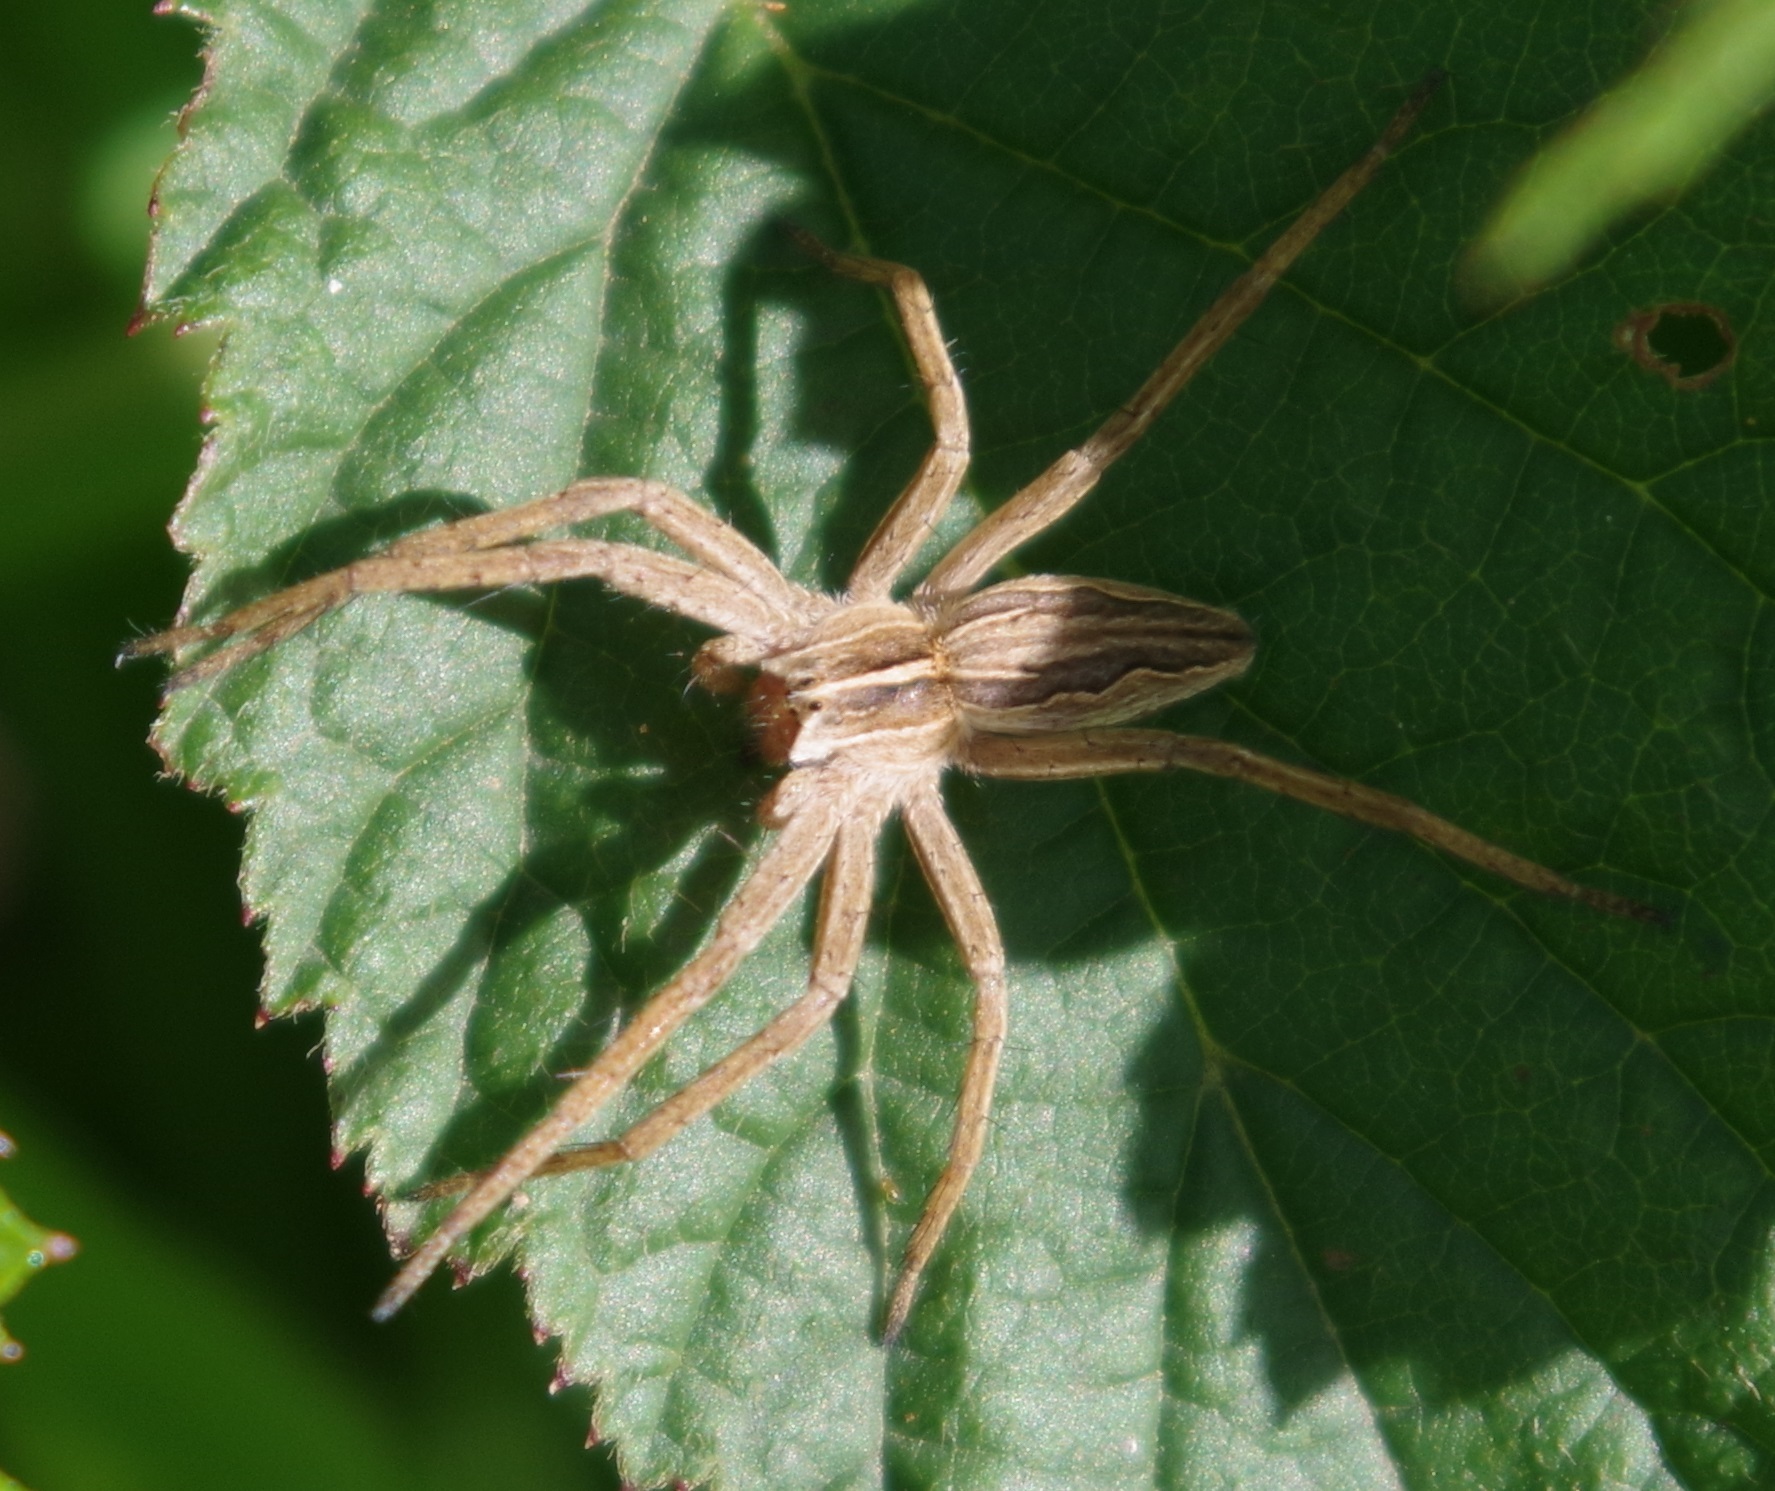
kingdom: Animalia
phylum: Arthropoda
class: Arachnida
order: Araneae
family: Pisauridae
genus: Pisaura
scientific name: Pisaura mirabilis
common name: Tent spider
